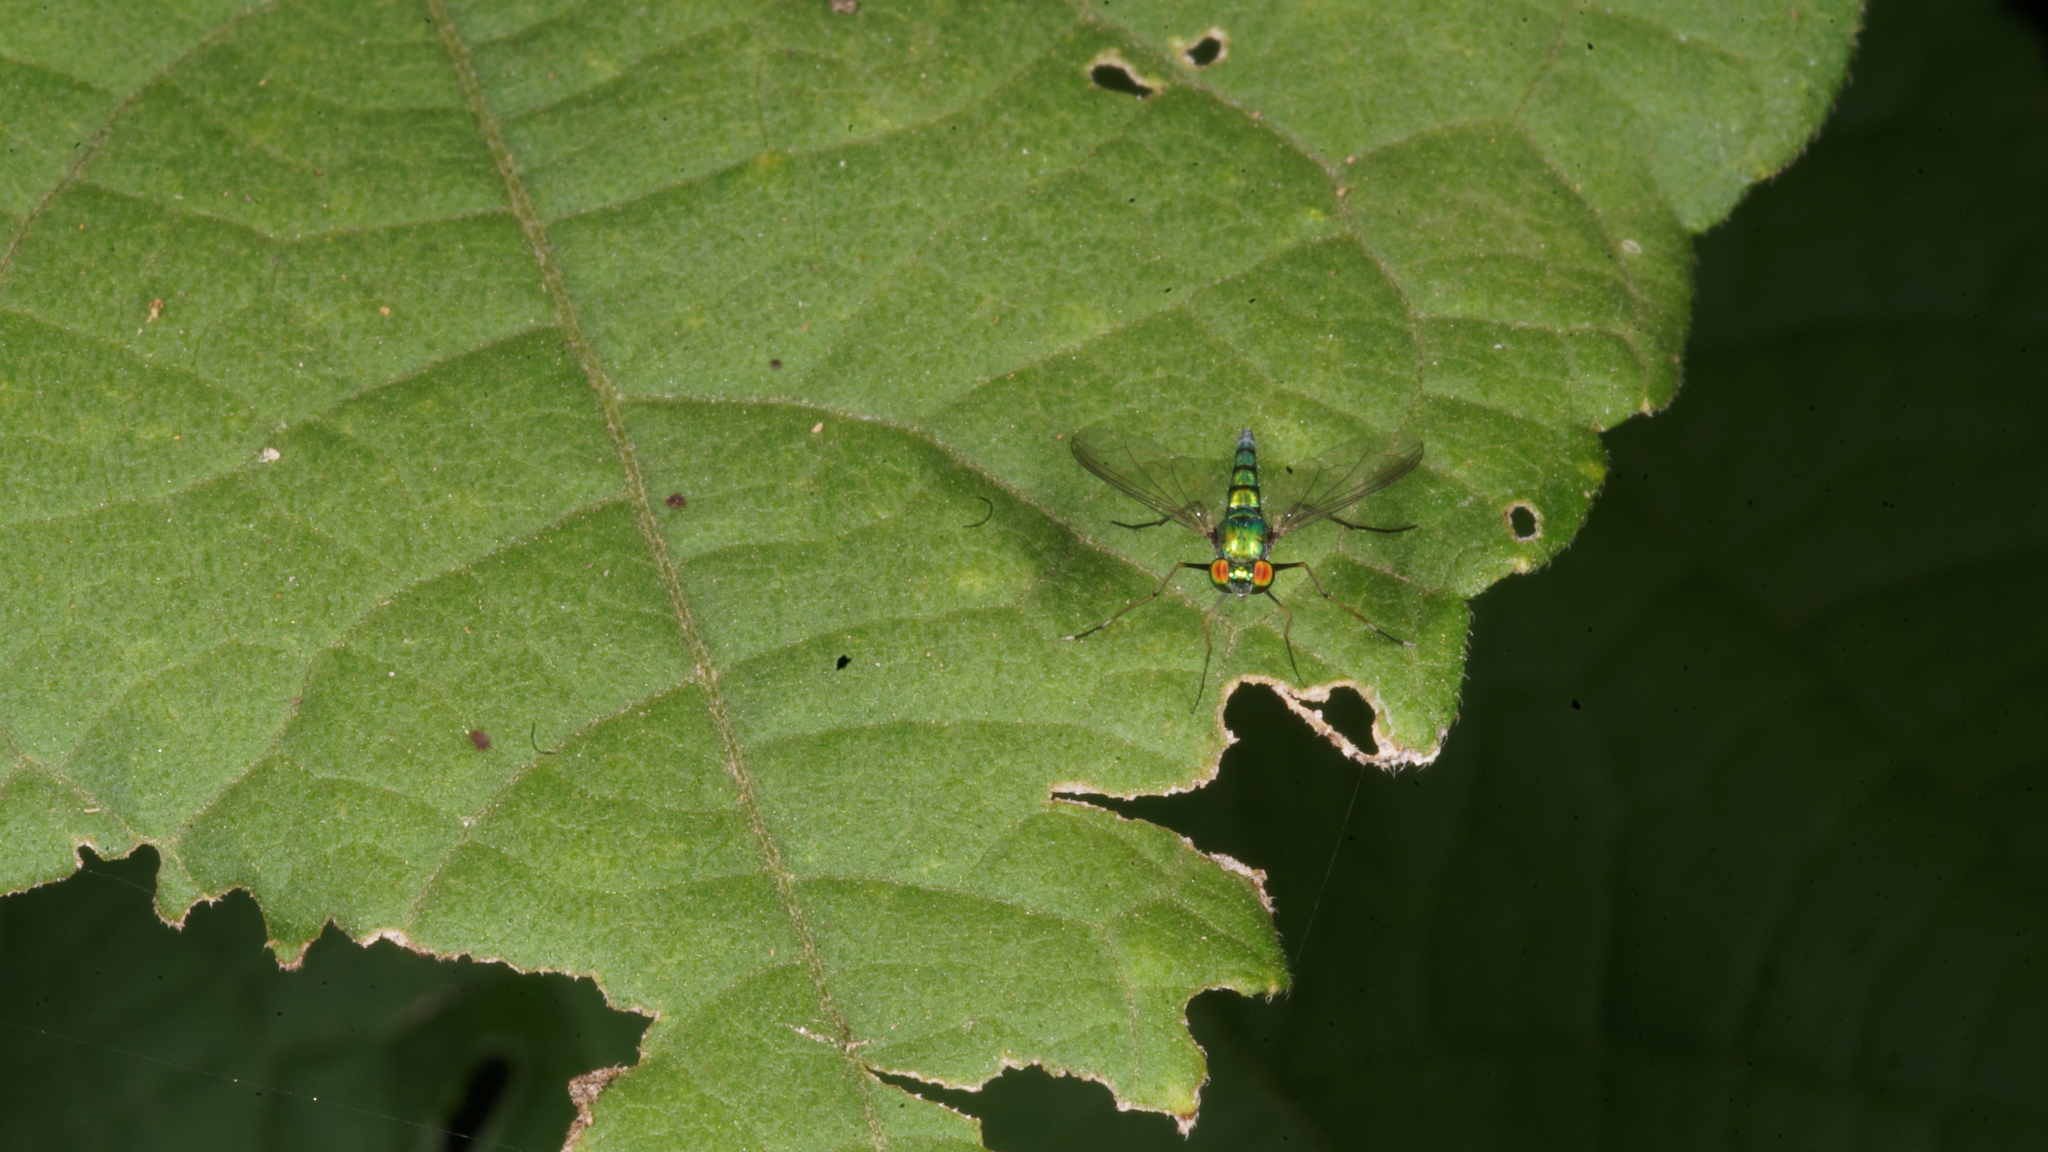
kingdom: Animalia
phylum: Arthropoda
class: Insecta
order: Diptera
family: Dolichopodidae
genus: Chrysosoma
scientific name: Chrysosoma leucopogon
